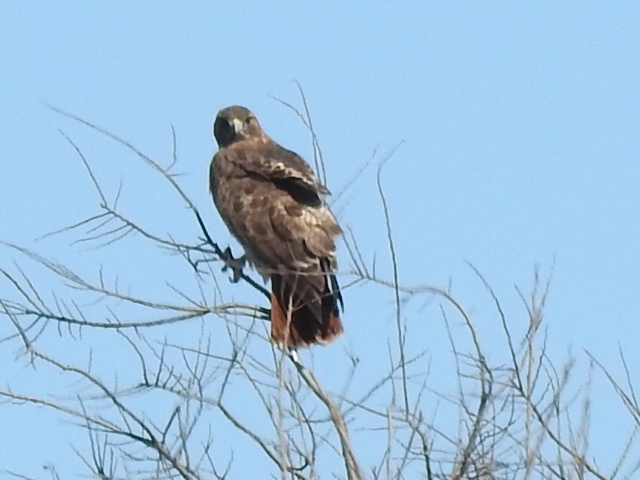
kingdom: Animalia
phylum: Chordata
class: Aves
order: Accipitriformes
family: Accipitridae
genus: Buteo
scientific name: Buteo jamaicensis
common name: Red-tailed hawk
